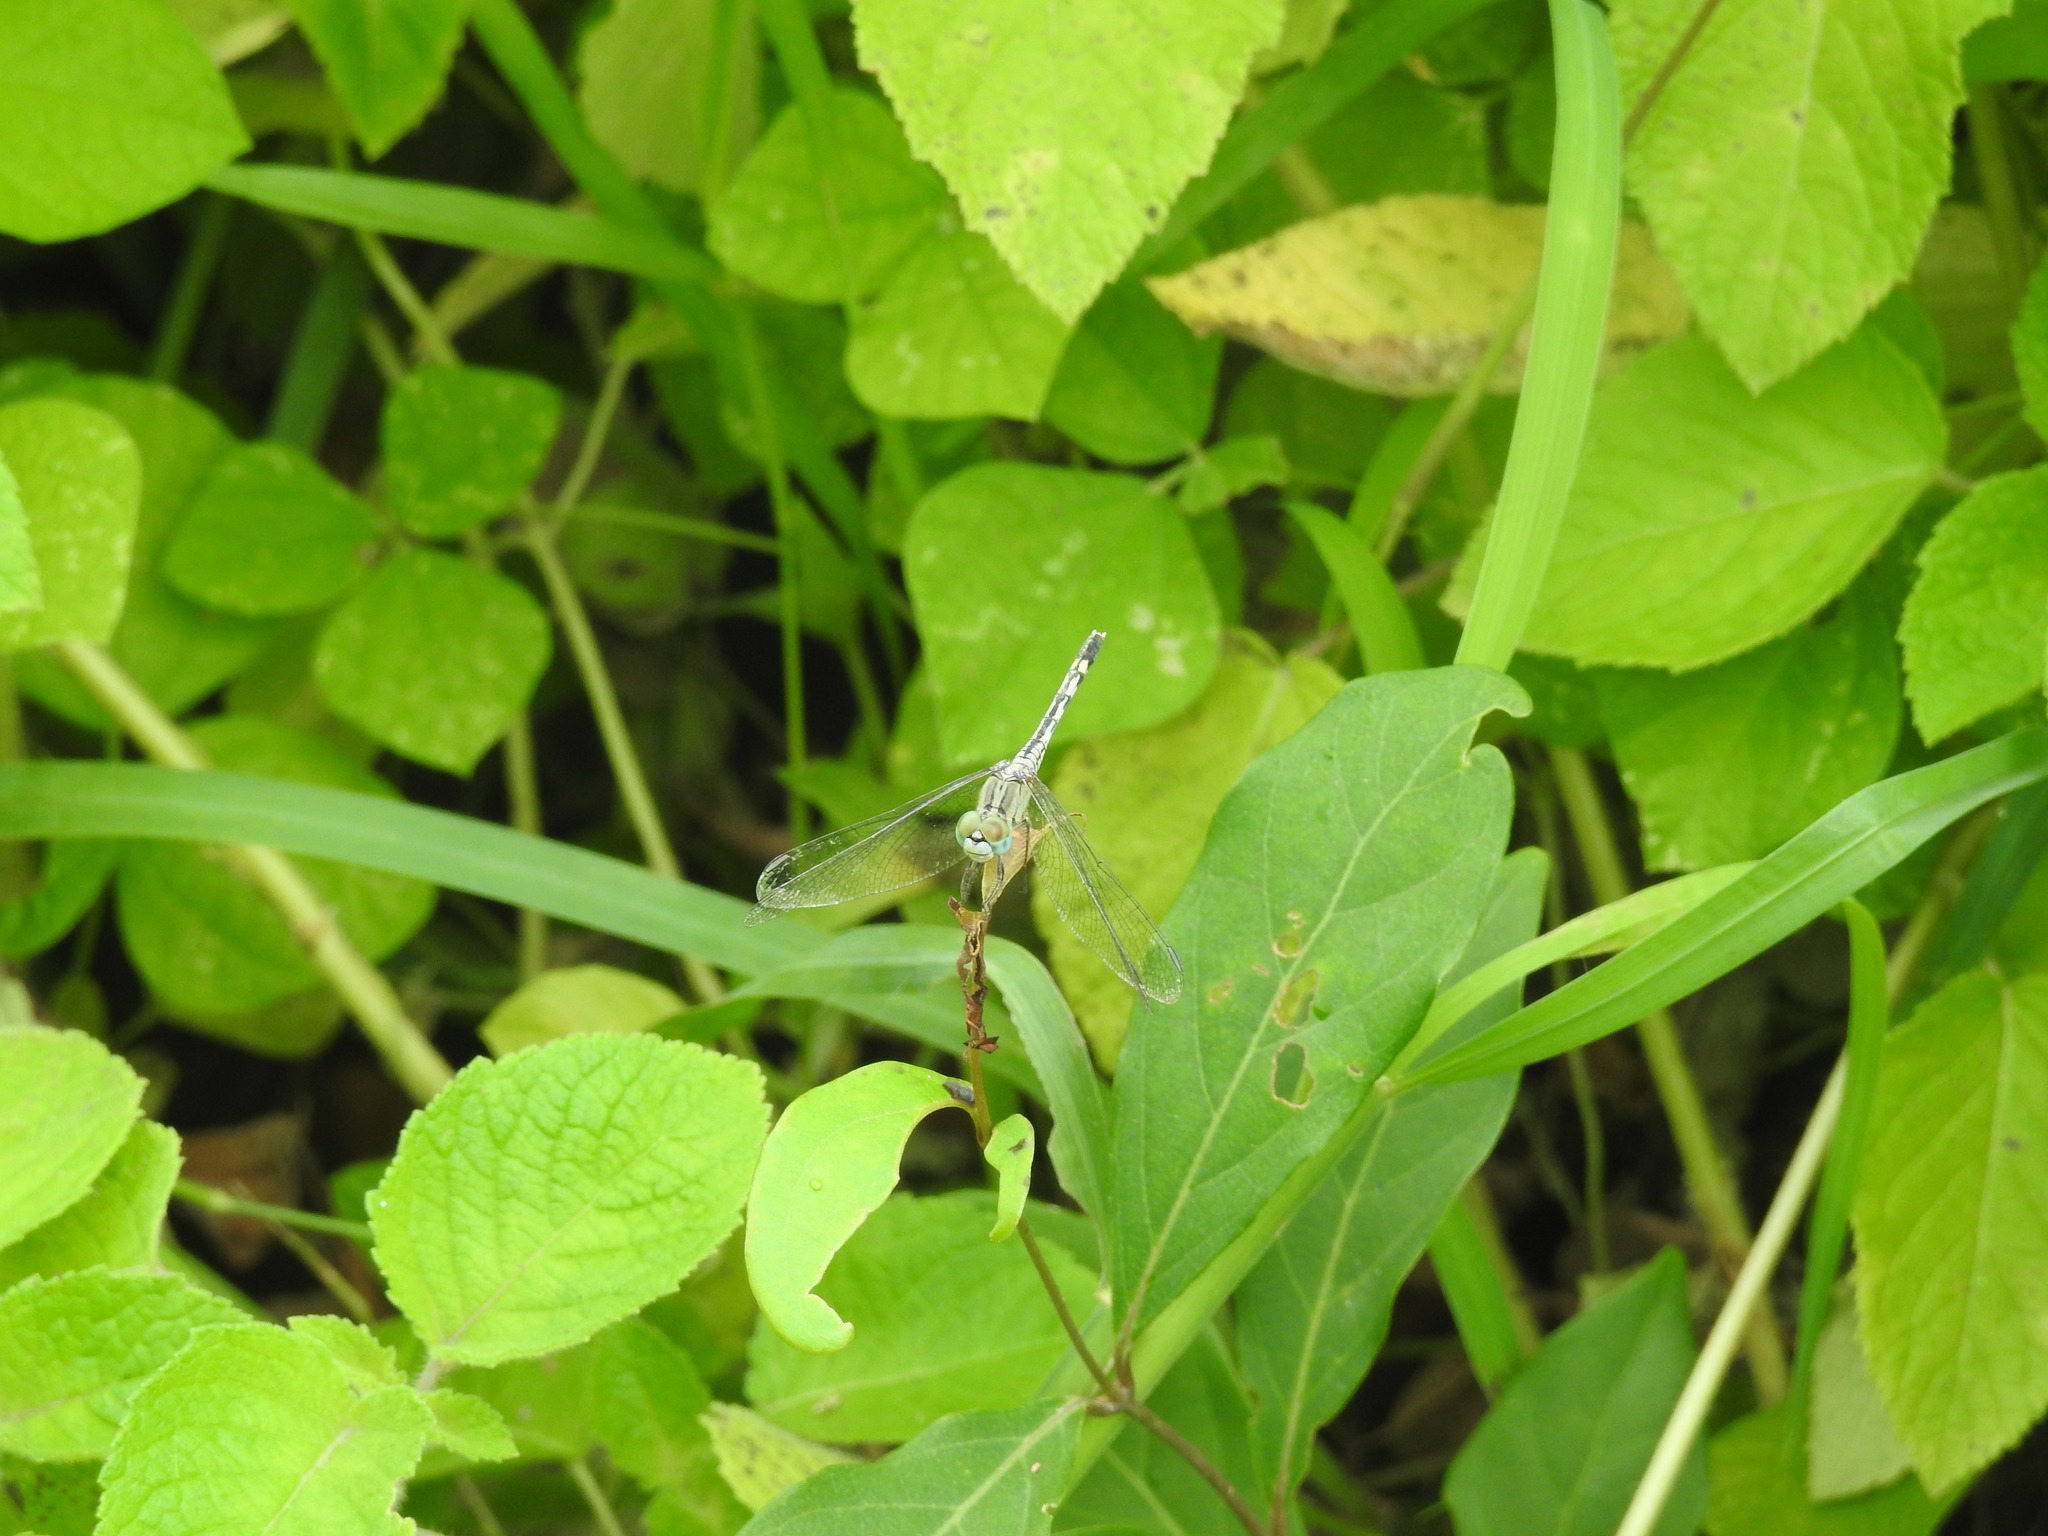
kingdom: Animalia
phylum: Arthropoda
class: Insecta
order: Odonata
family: Libellulidae
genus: Diplacodes
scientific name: Diplacodes trivialis
